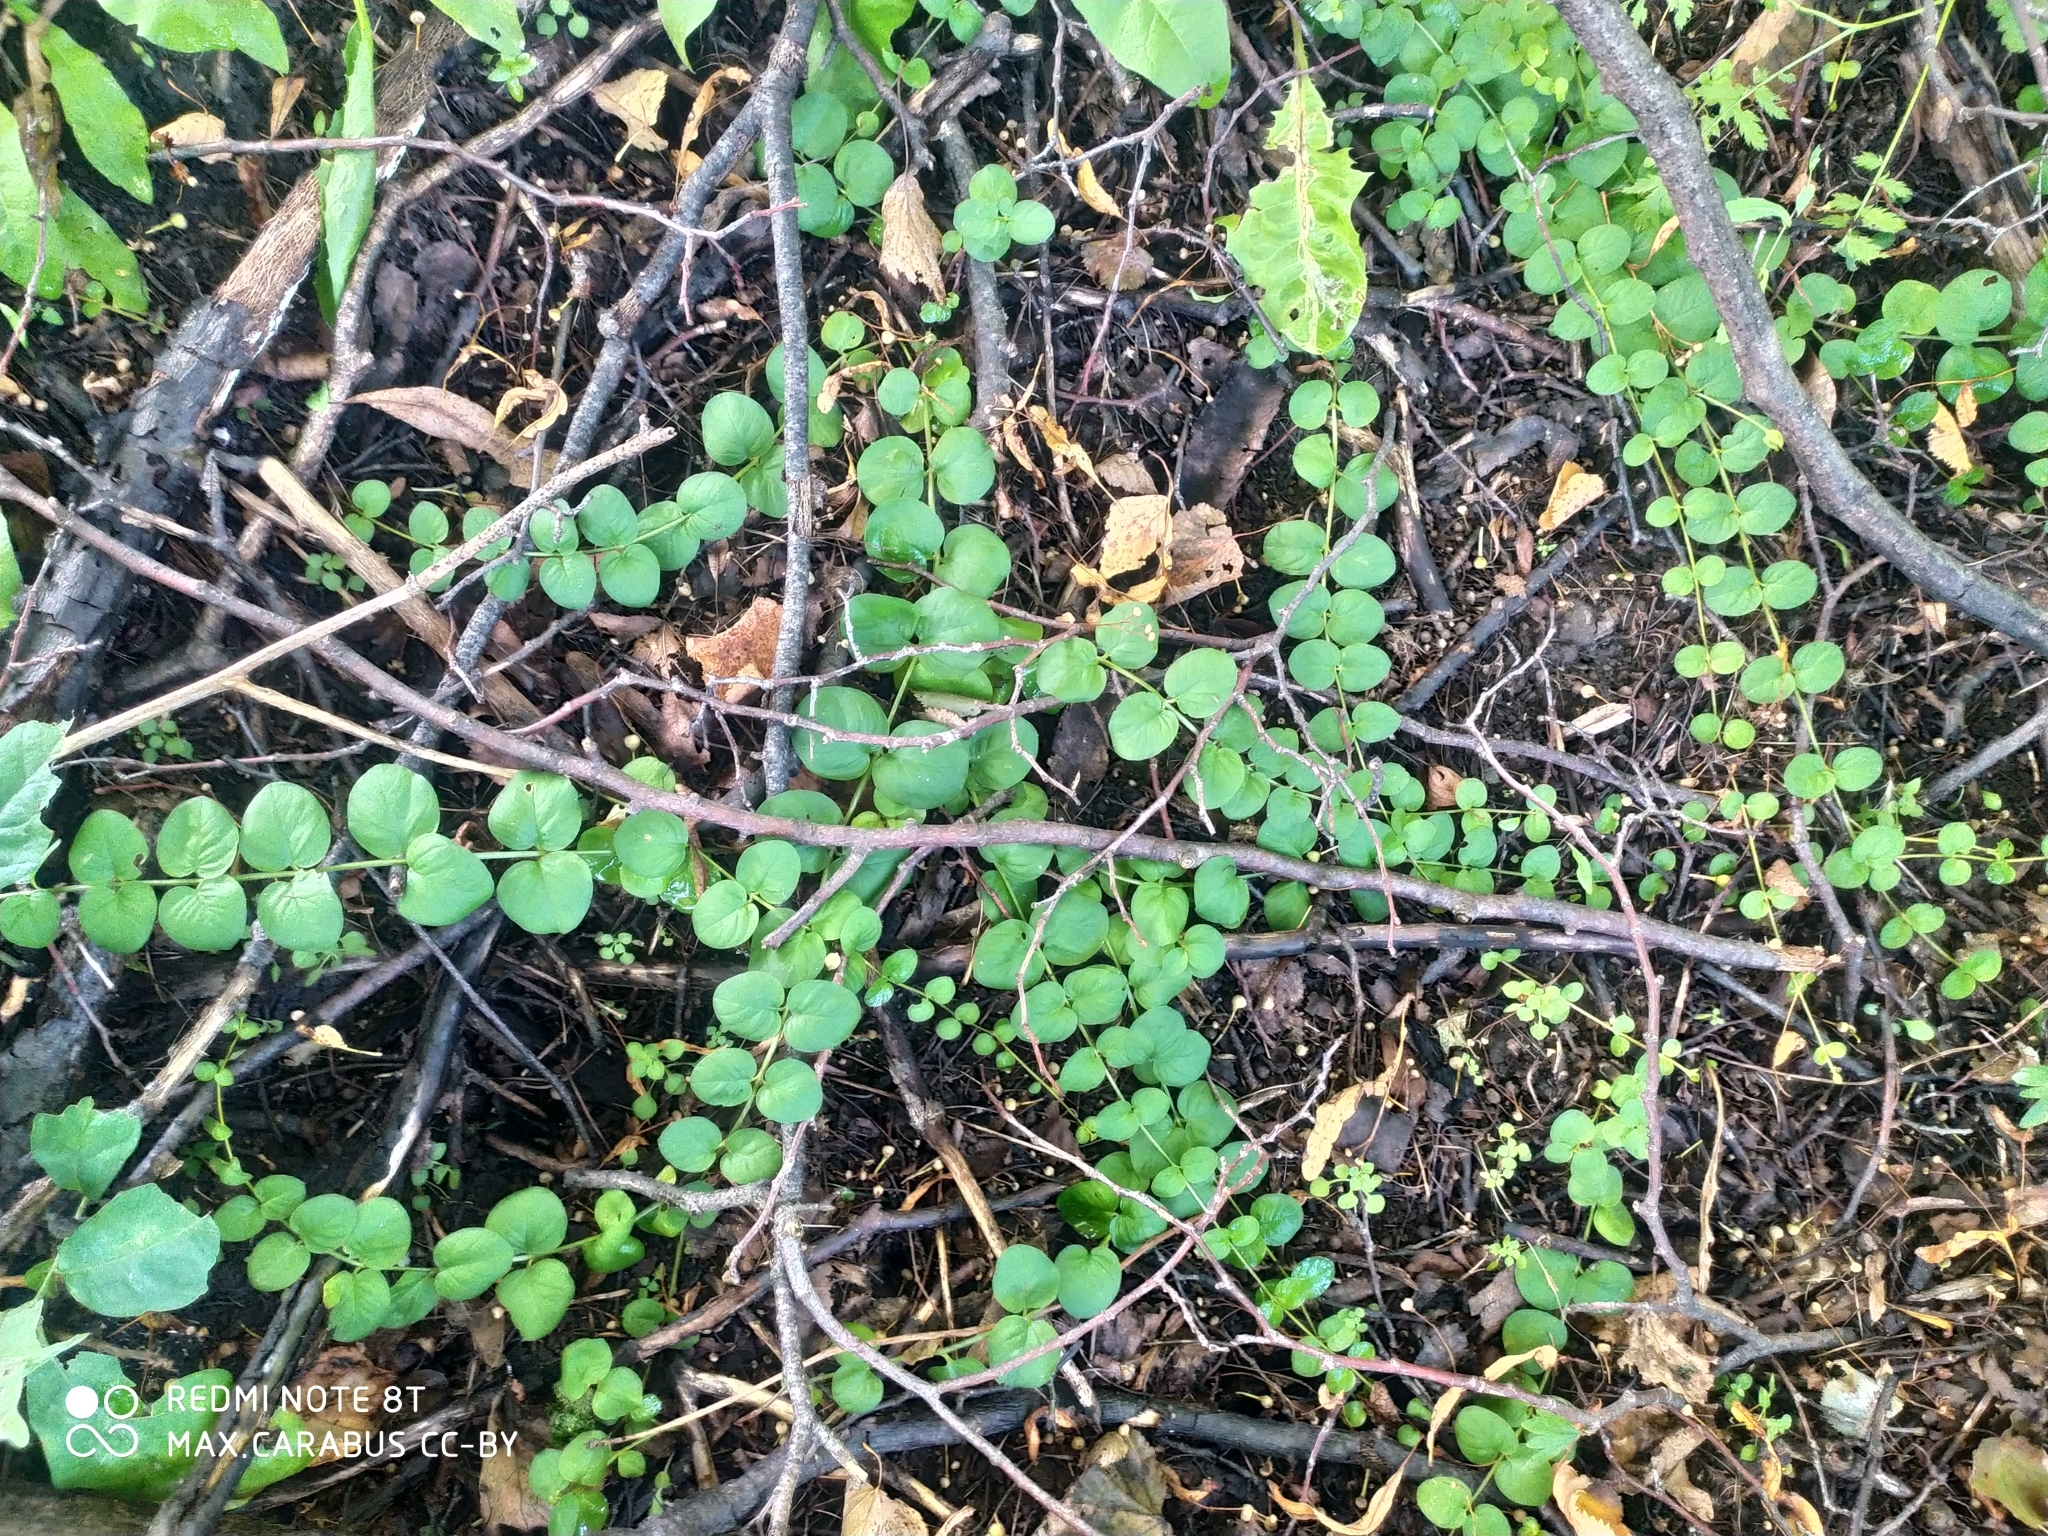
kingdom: Plantae
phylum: Tracheophyta
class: Magnoliopsida
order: Ericales
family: Primulaceae
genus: Lysimachia
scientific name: Lysimachia nummularia
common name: Moneywort
